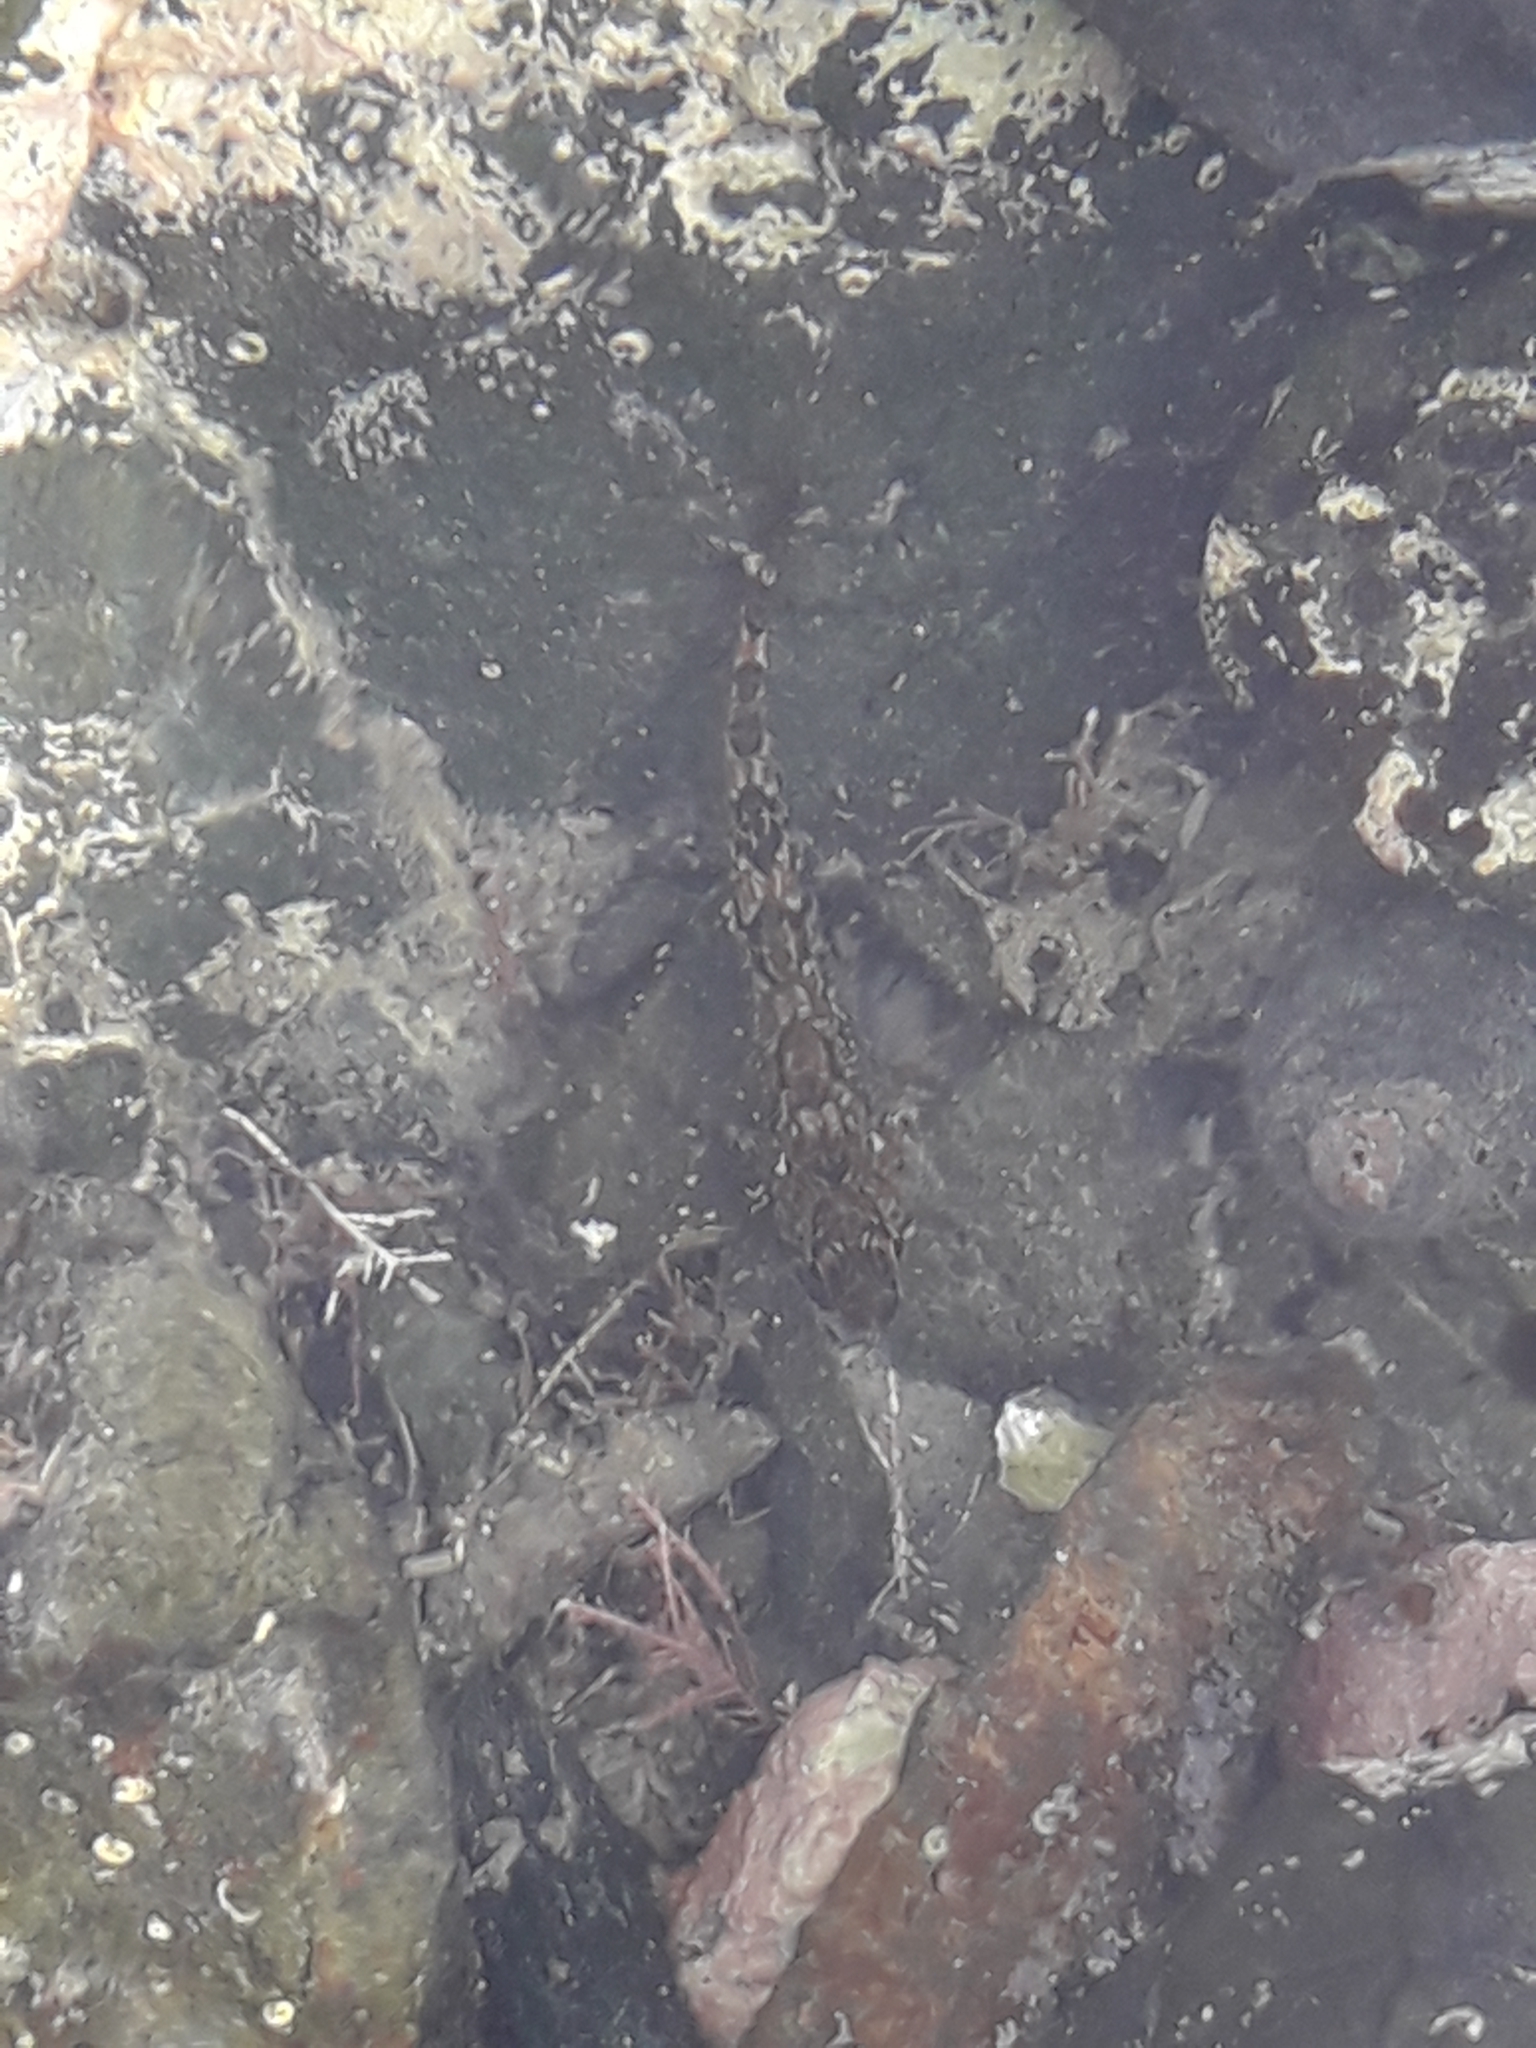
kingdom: Animalia
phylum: Chordata
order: Perciformes
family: Tripterygiidae
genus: Bellapiscis
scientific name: Bellapiscis medius
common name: Twister
